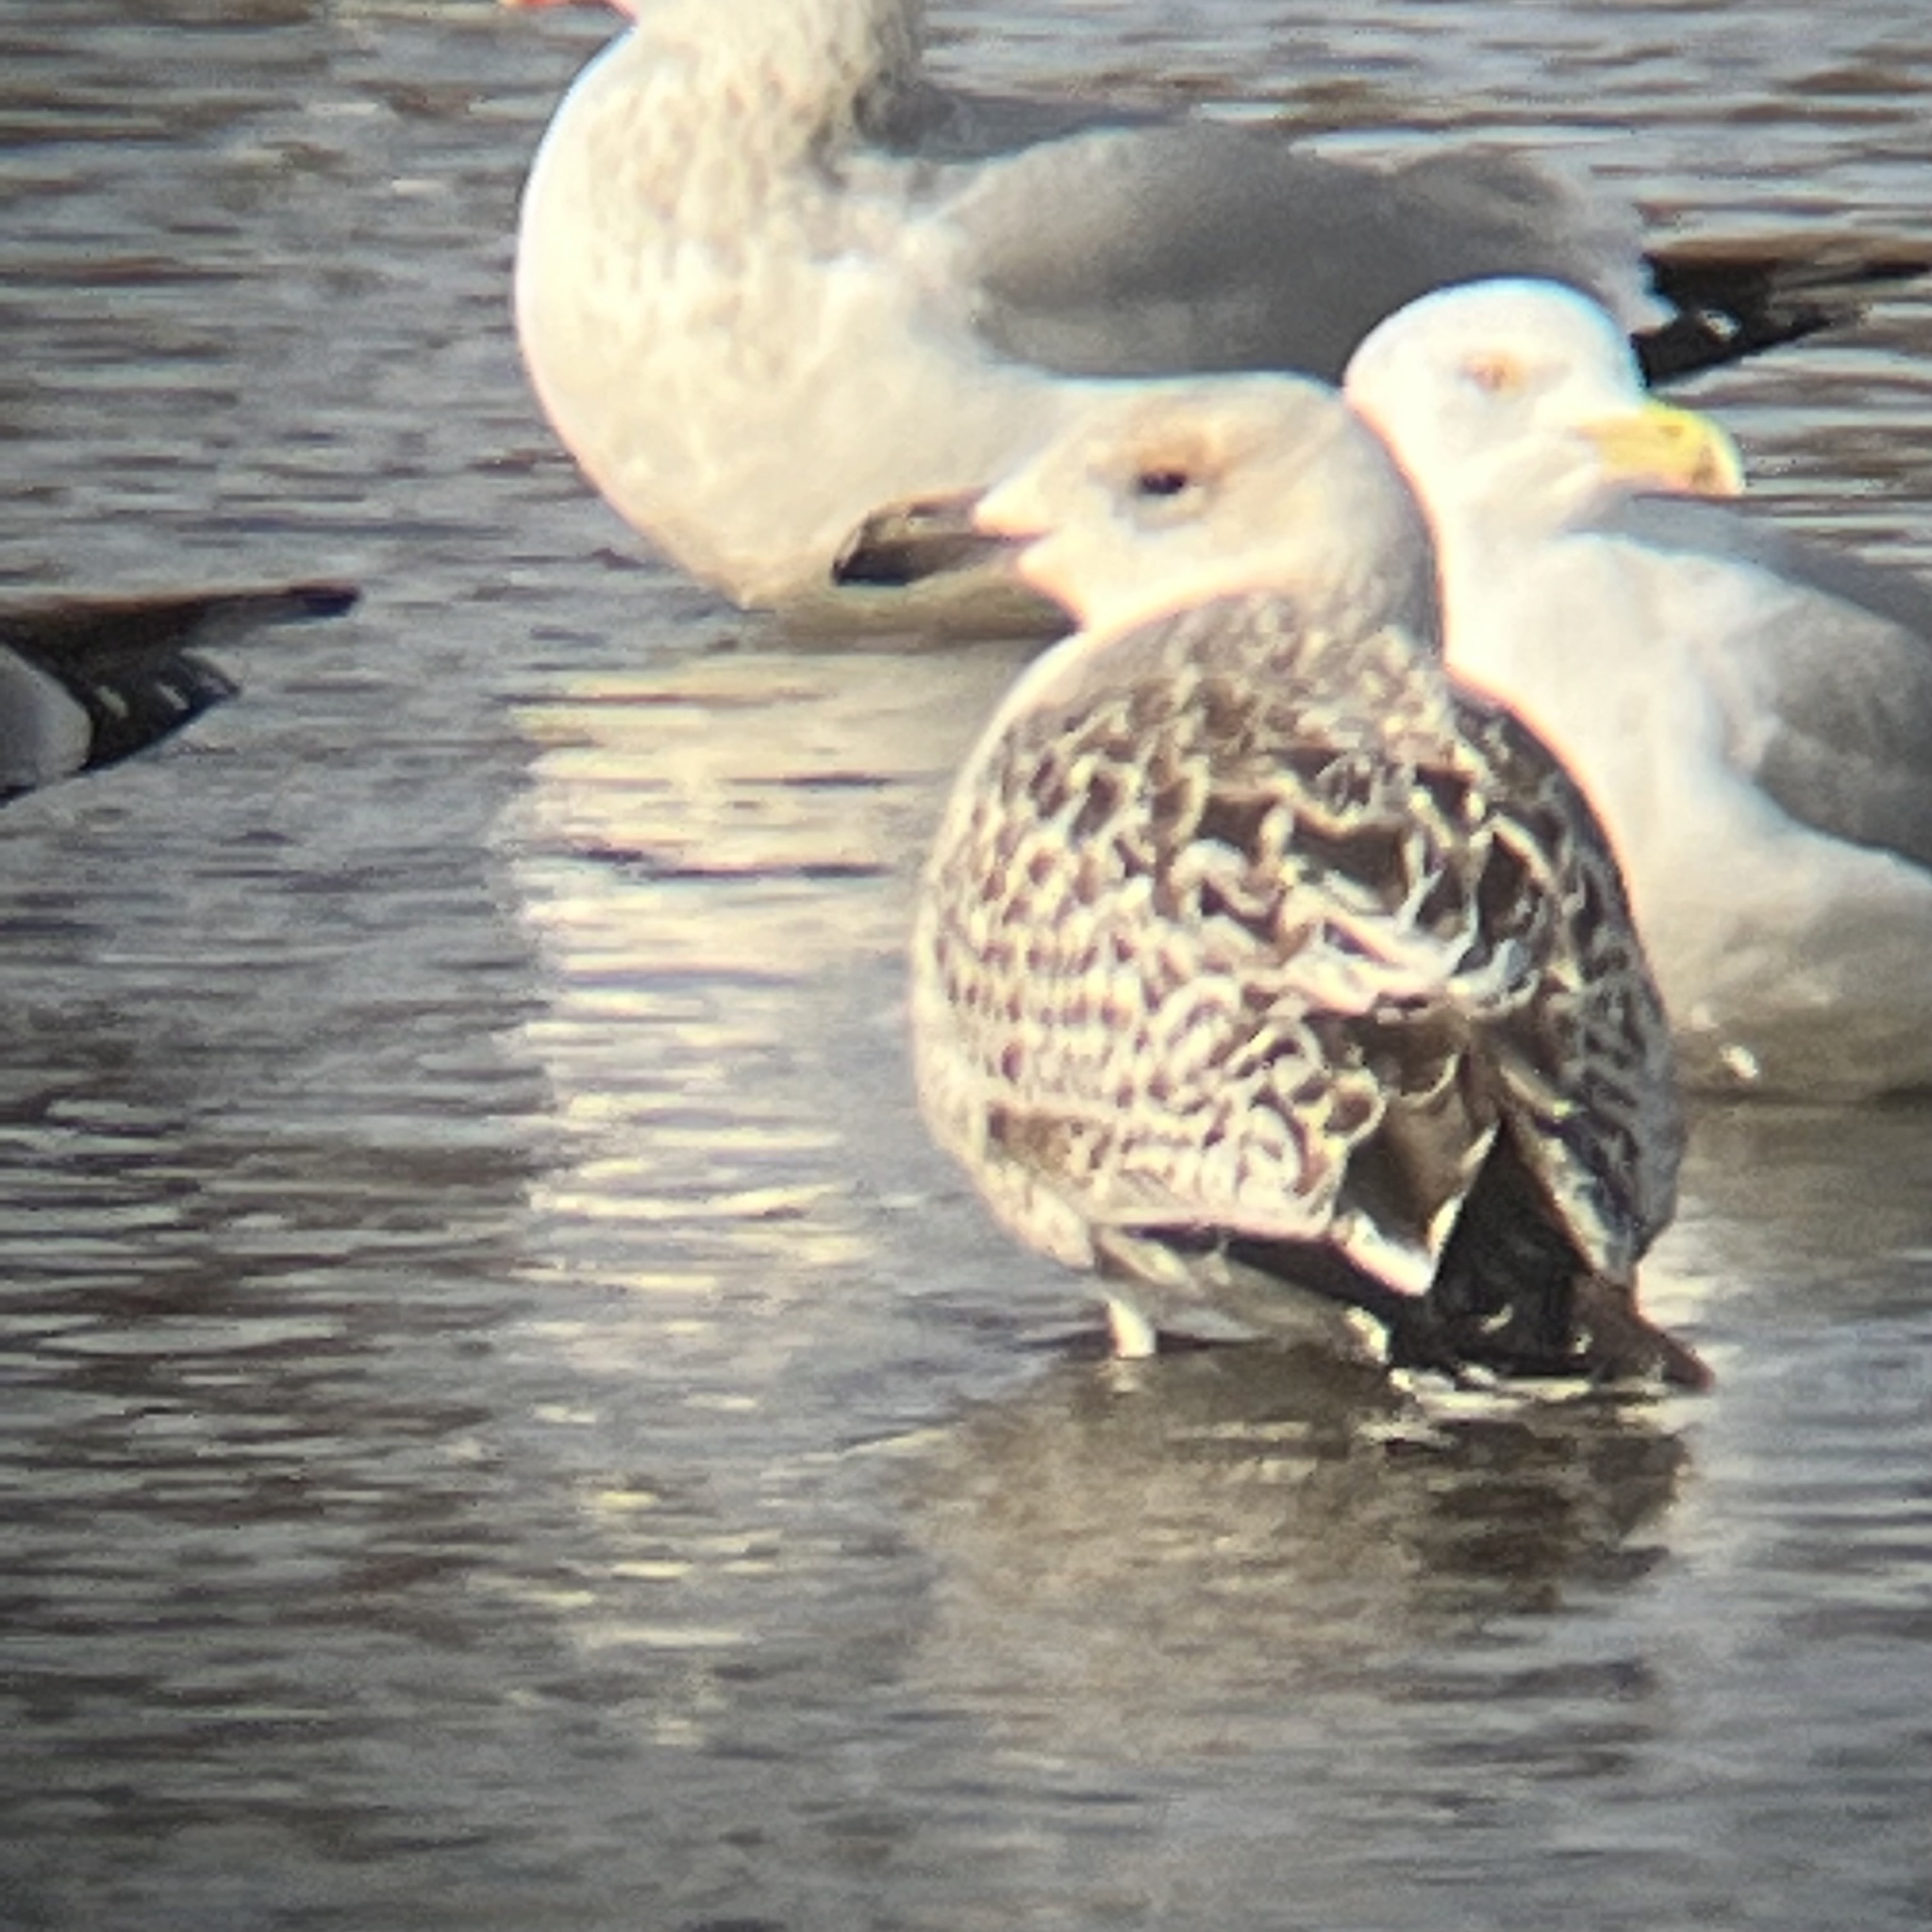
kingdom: Animalia
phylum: Chordata
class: Aves
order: Charadriiformes
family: Laridae
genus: Larus
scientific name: Larus marinus
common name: Great black-backed gull
